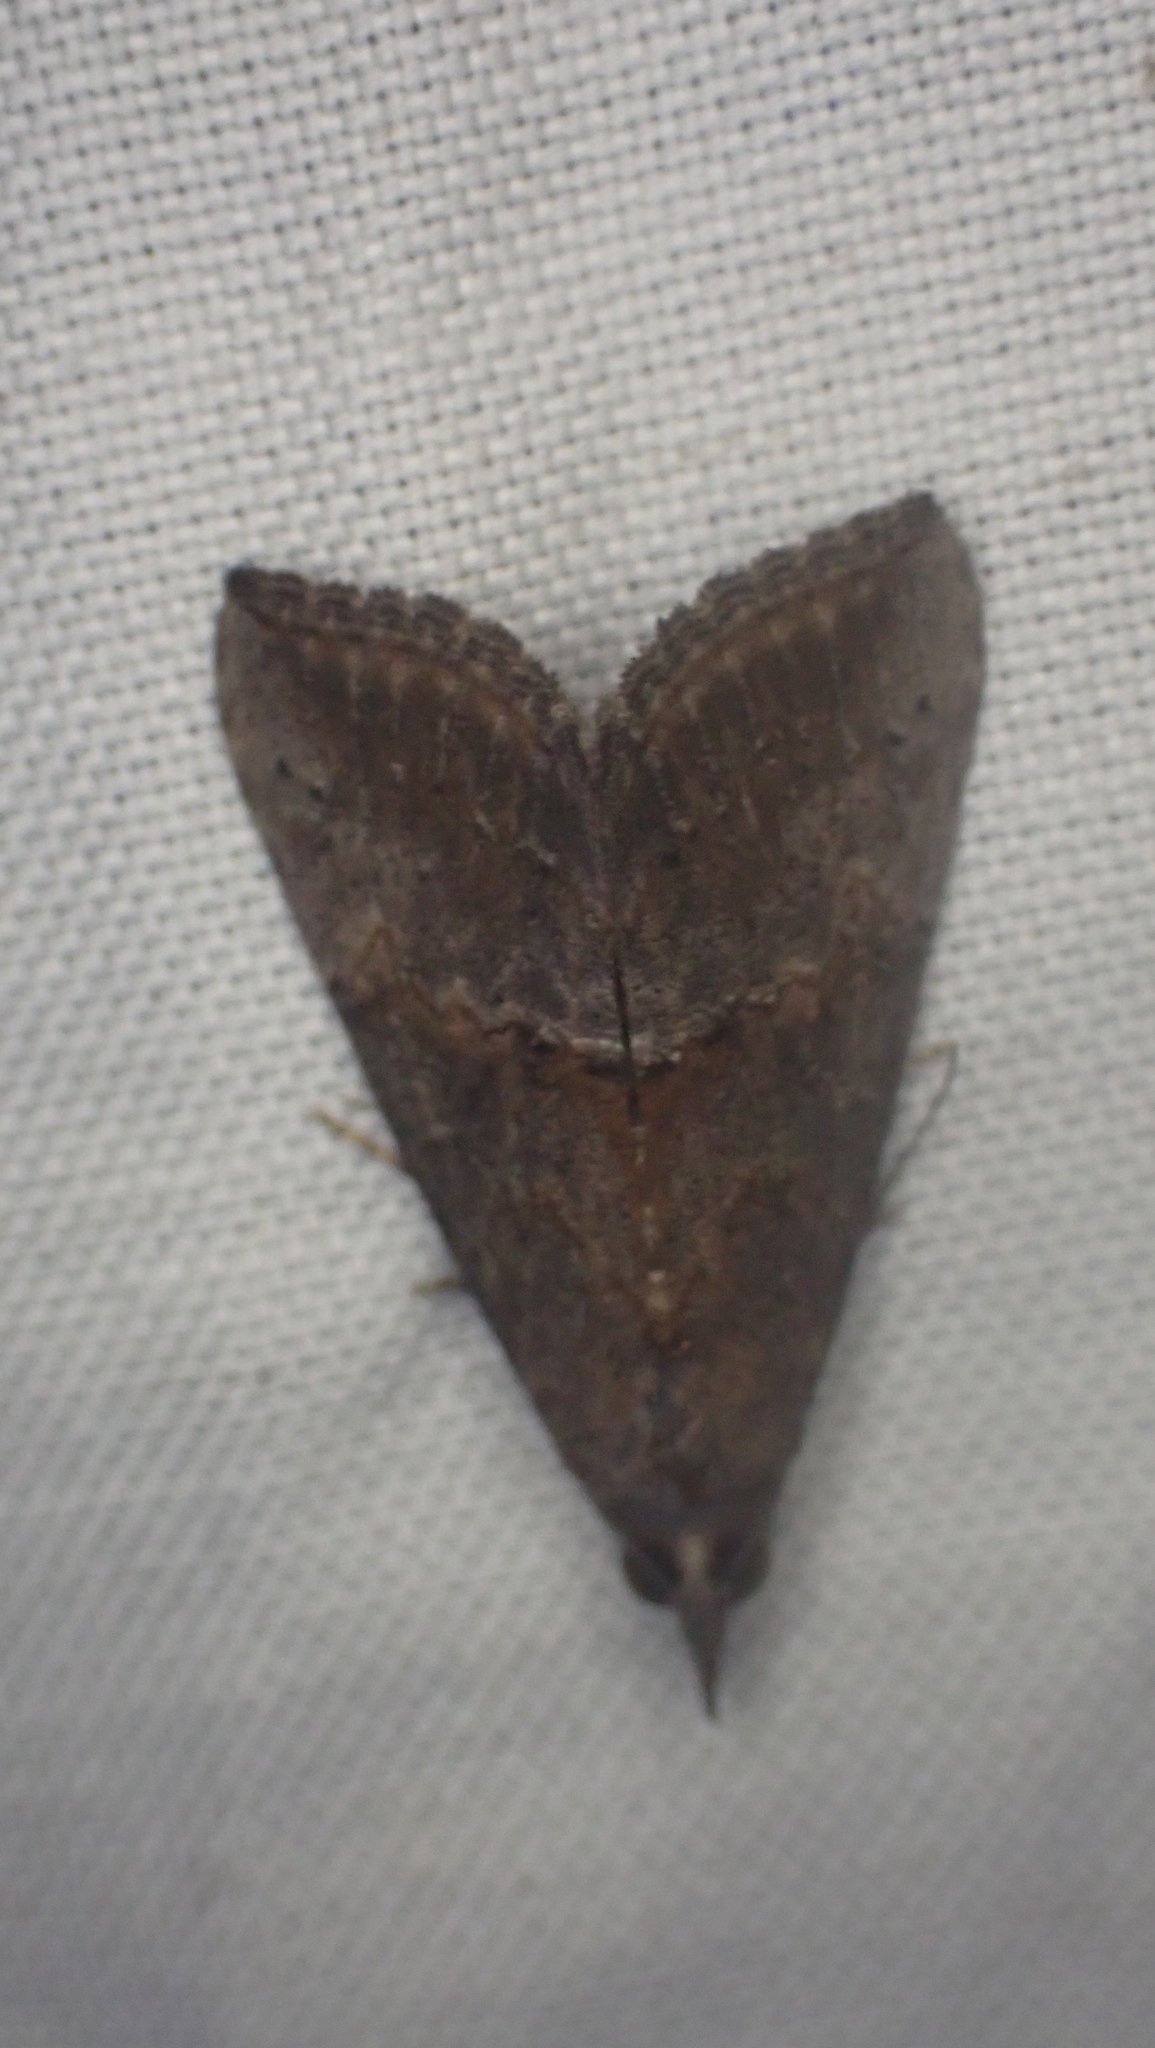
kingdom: Animalia
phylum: Arthropoda
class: Insecta
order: Lepidoptera
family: Erebidae
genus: Hypena
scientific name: Hypena scabra
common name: Green cloverworm
